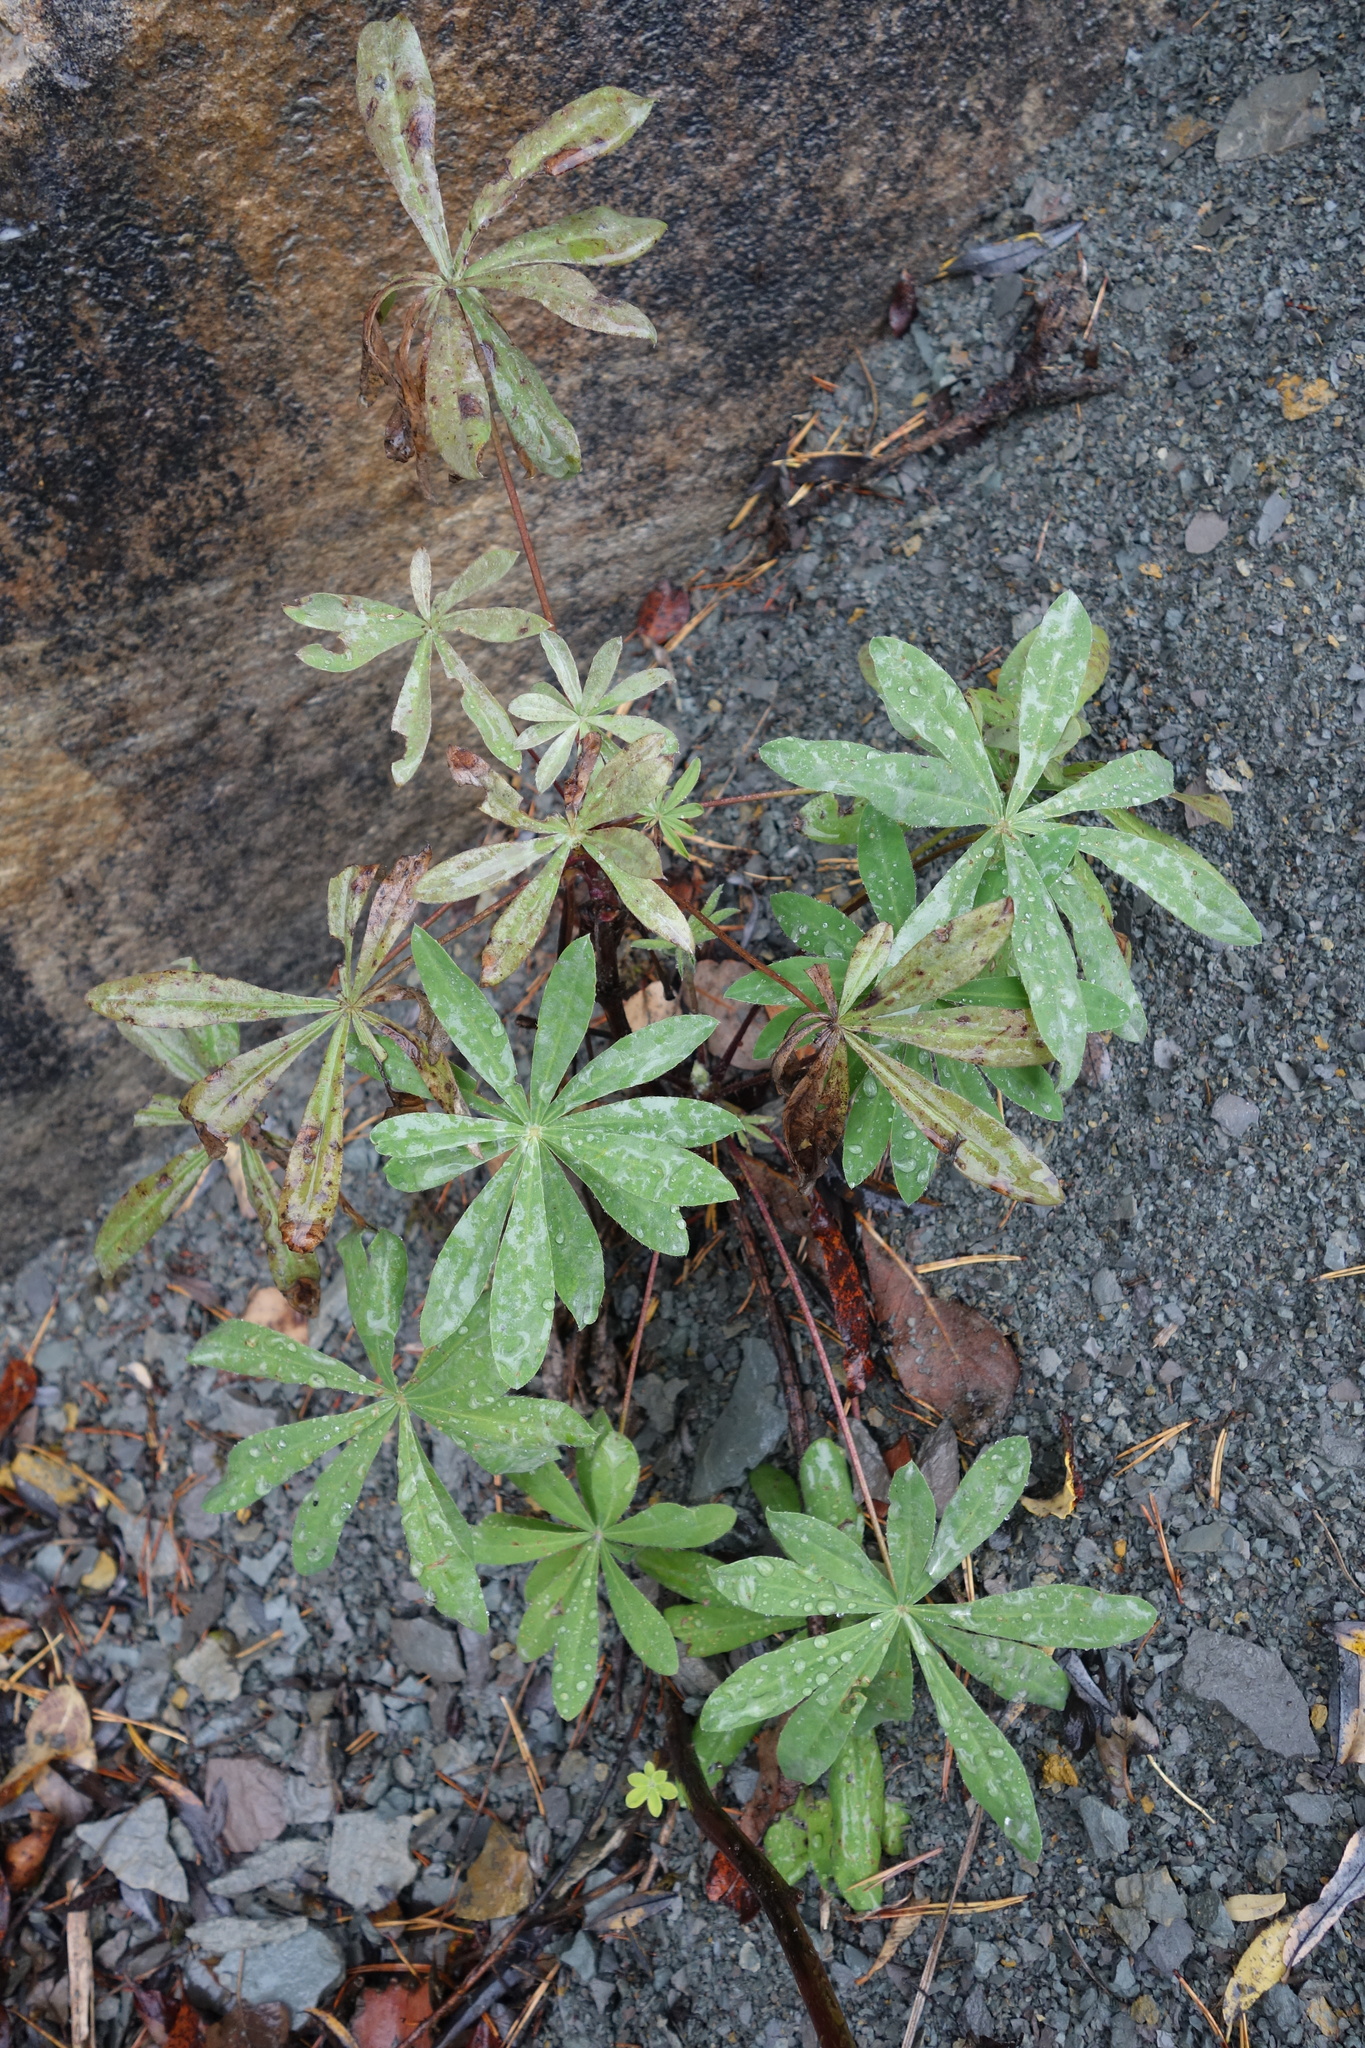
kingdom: Plantae
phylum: Tracheophyta
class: Magnoliopsida
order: Fabales
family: Fabaceae
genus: Lupinus
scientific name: Lupinus polyphyllus
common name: Garden lupin
